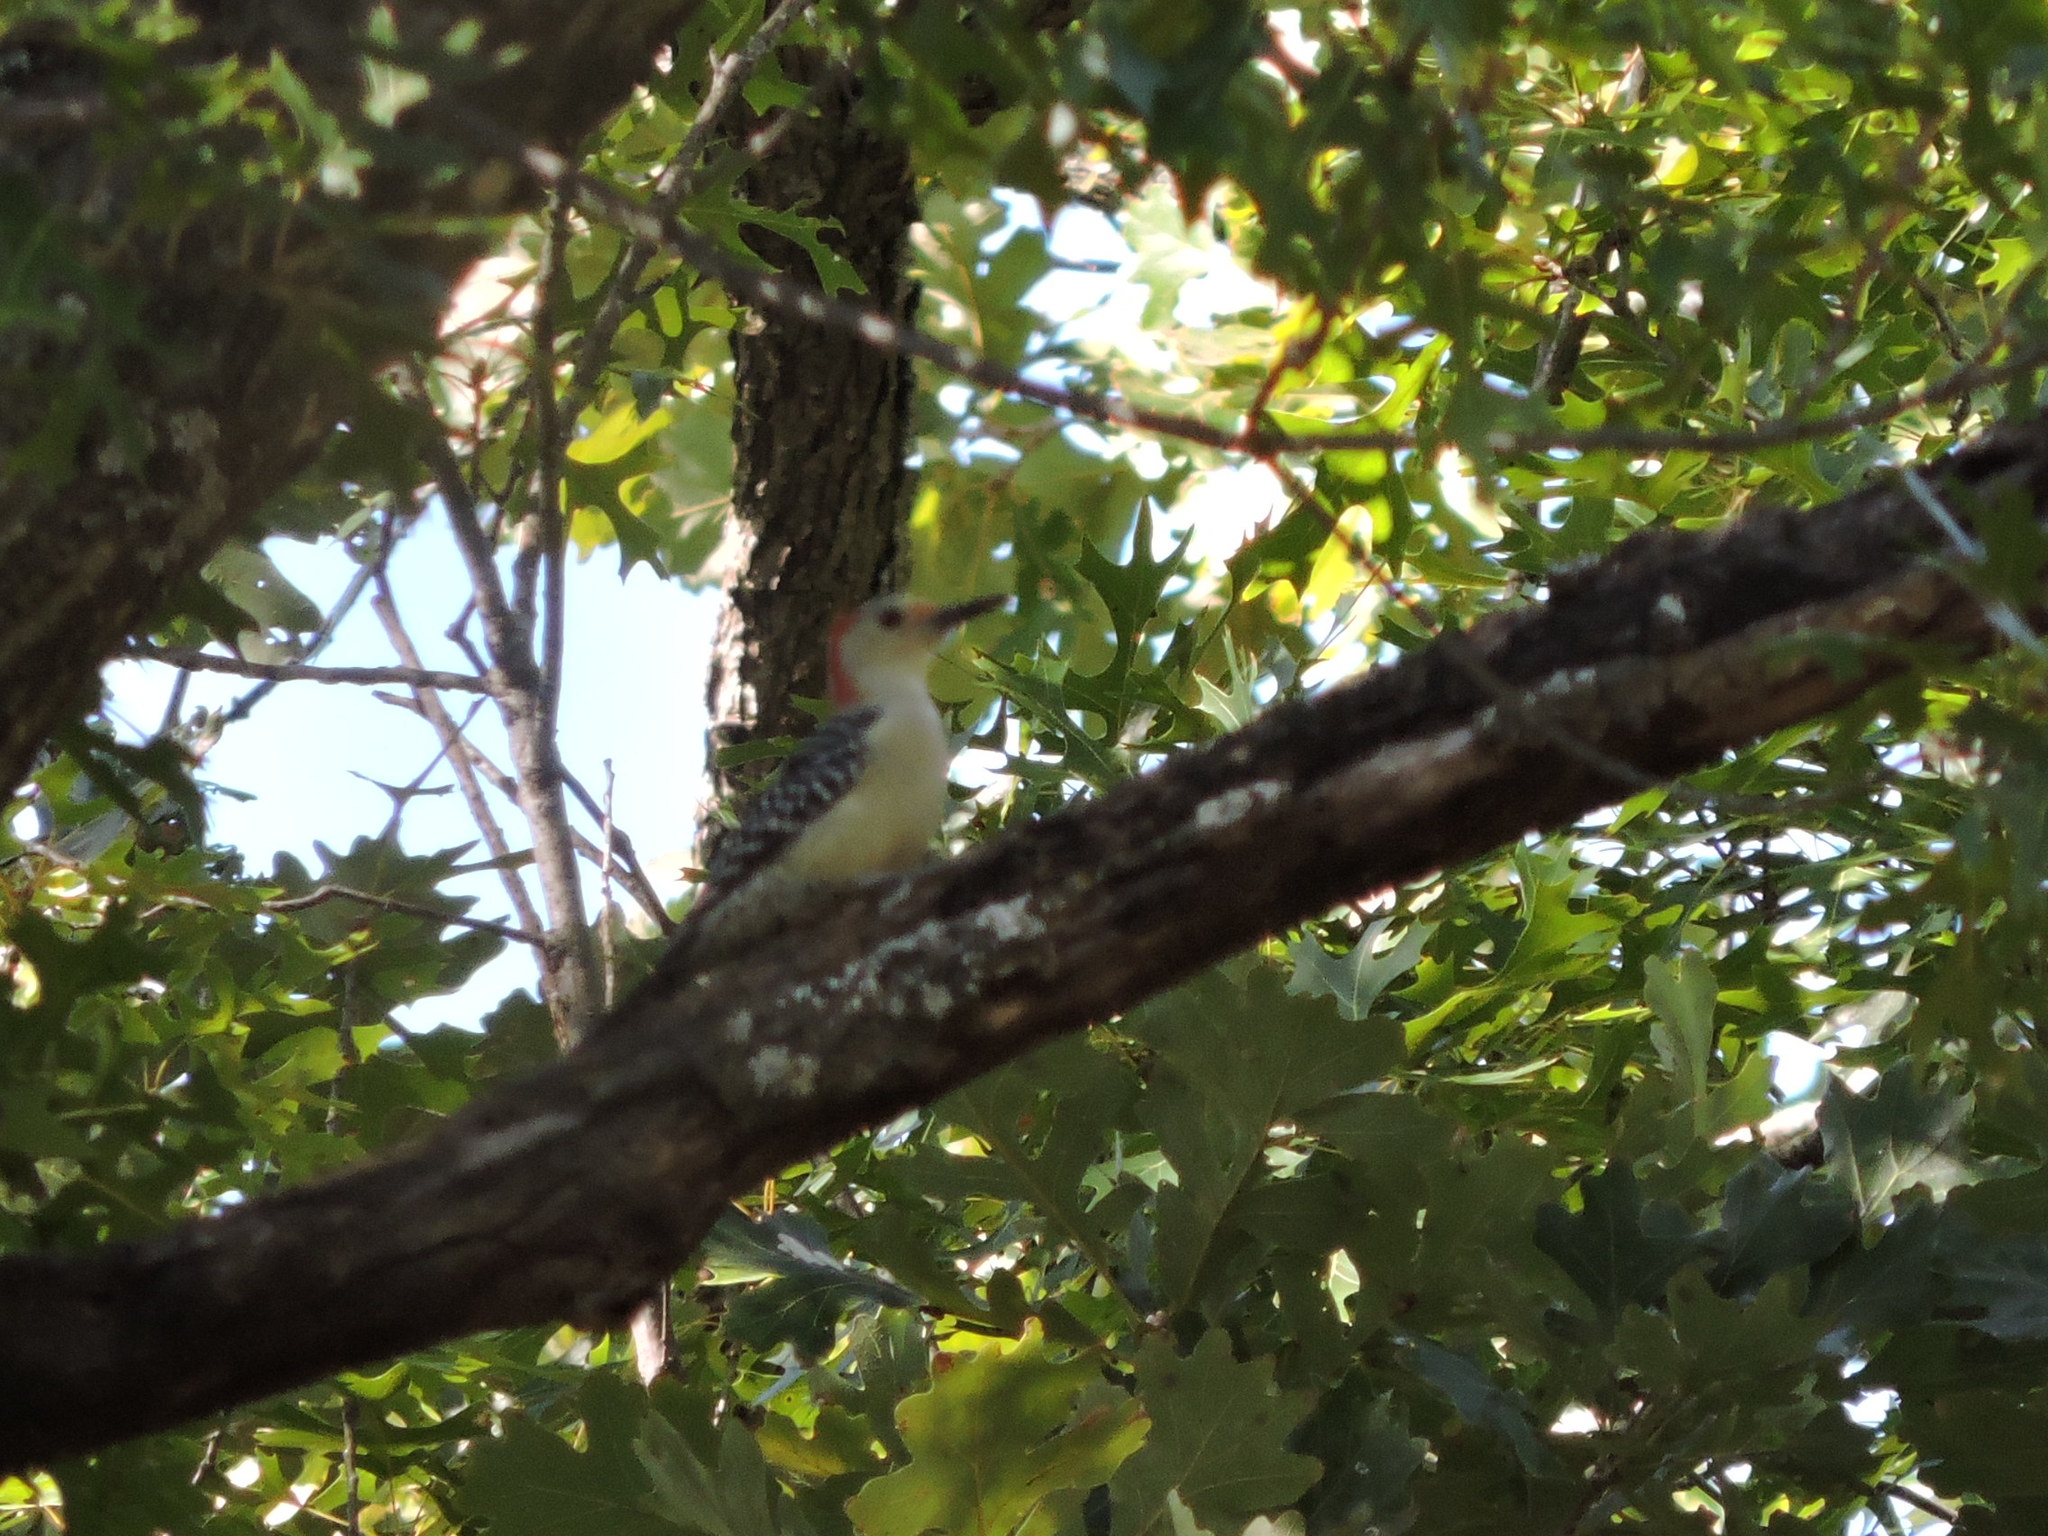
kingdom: Animalia
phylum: Chordata
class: Aves
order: Piciformes
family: Picidae
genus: Melanerpes
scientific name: Melanerpes carolinus
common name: Red-bellied woodpecker
